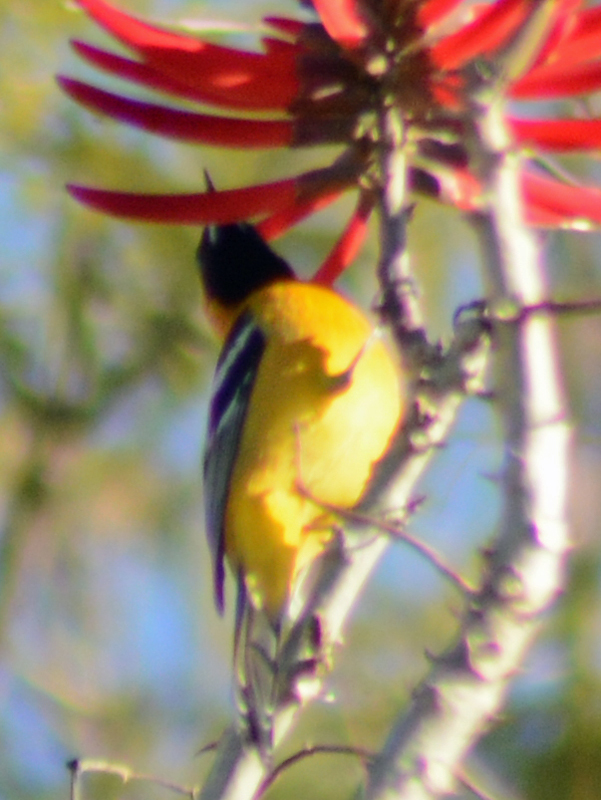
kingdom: Animalia
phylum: Chordata
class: Aves
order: Passeriformes
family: Icteridae
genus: Icterus
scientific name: Icterus cucullatus
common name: Hooded oriole
